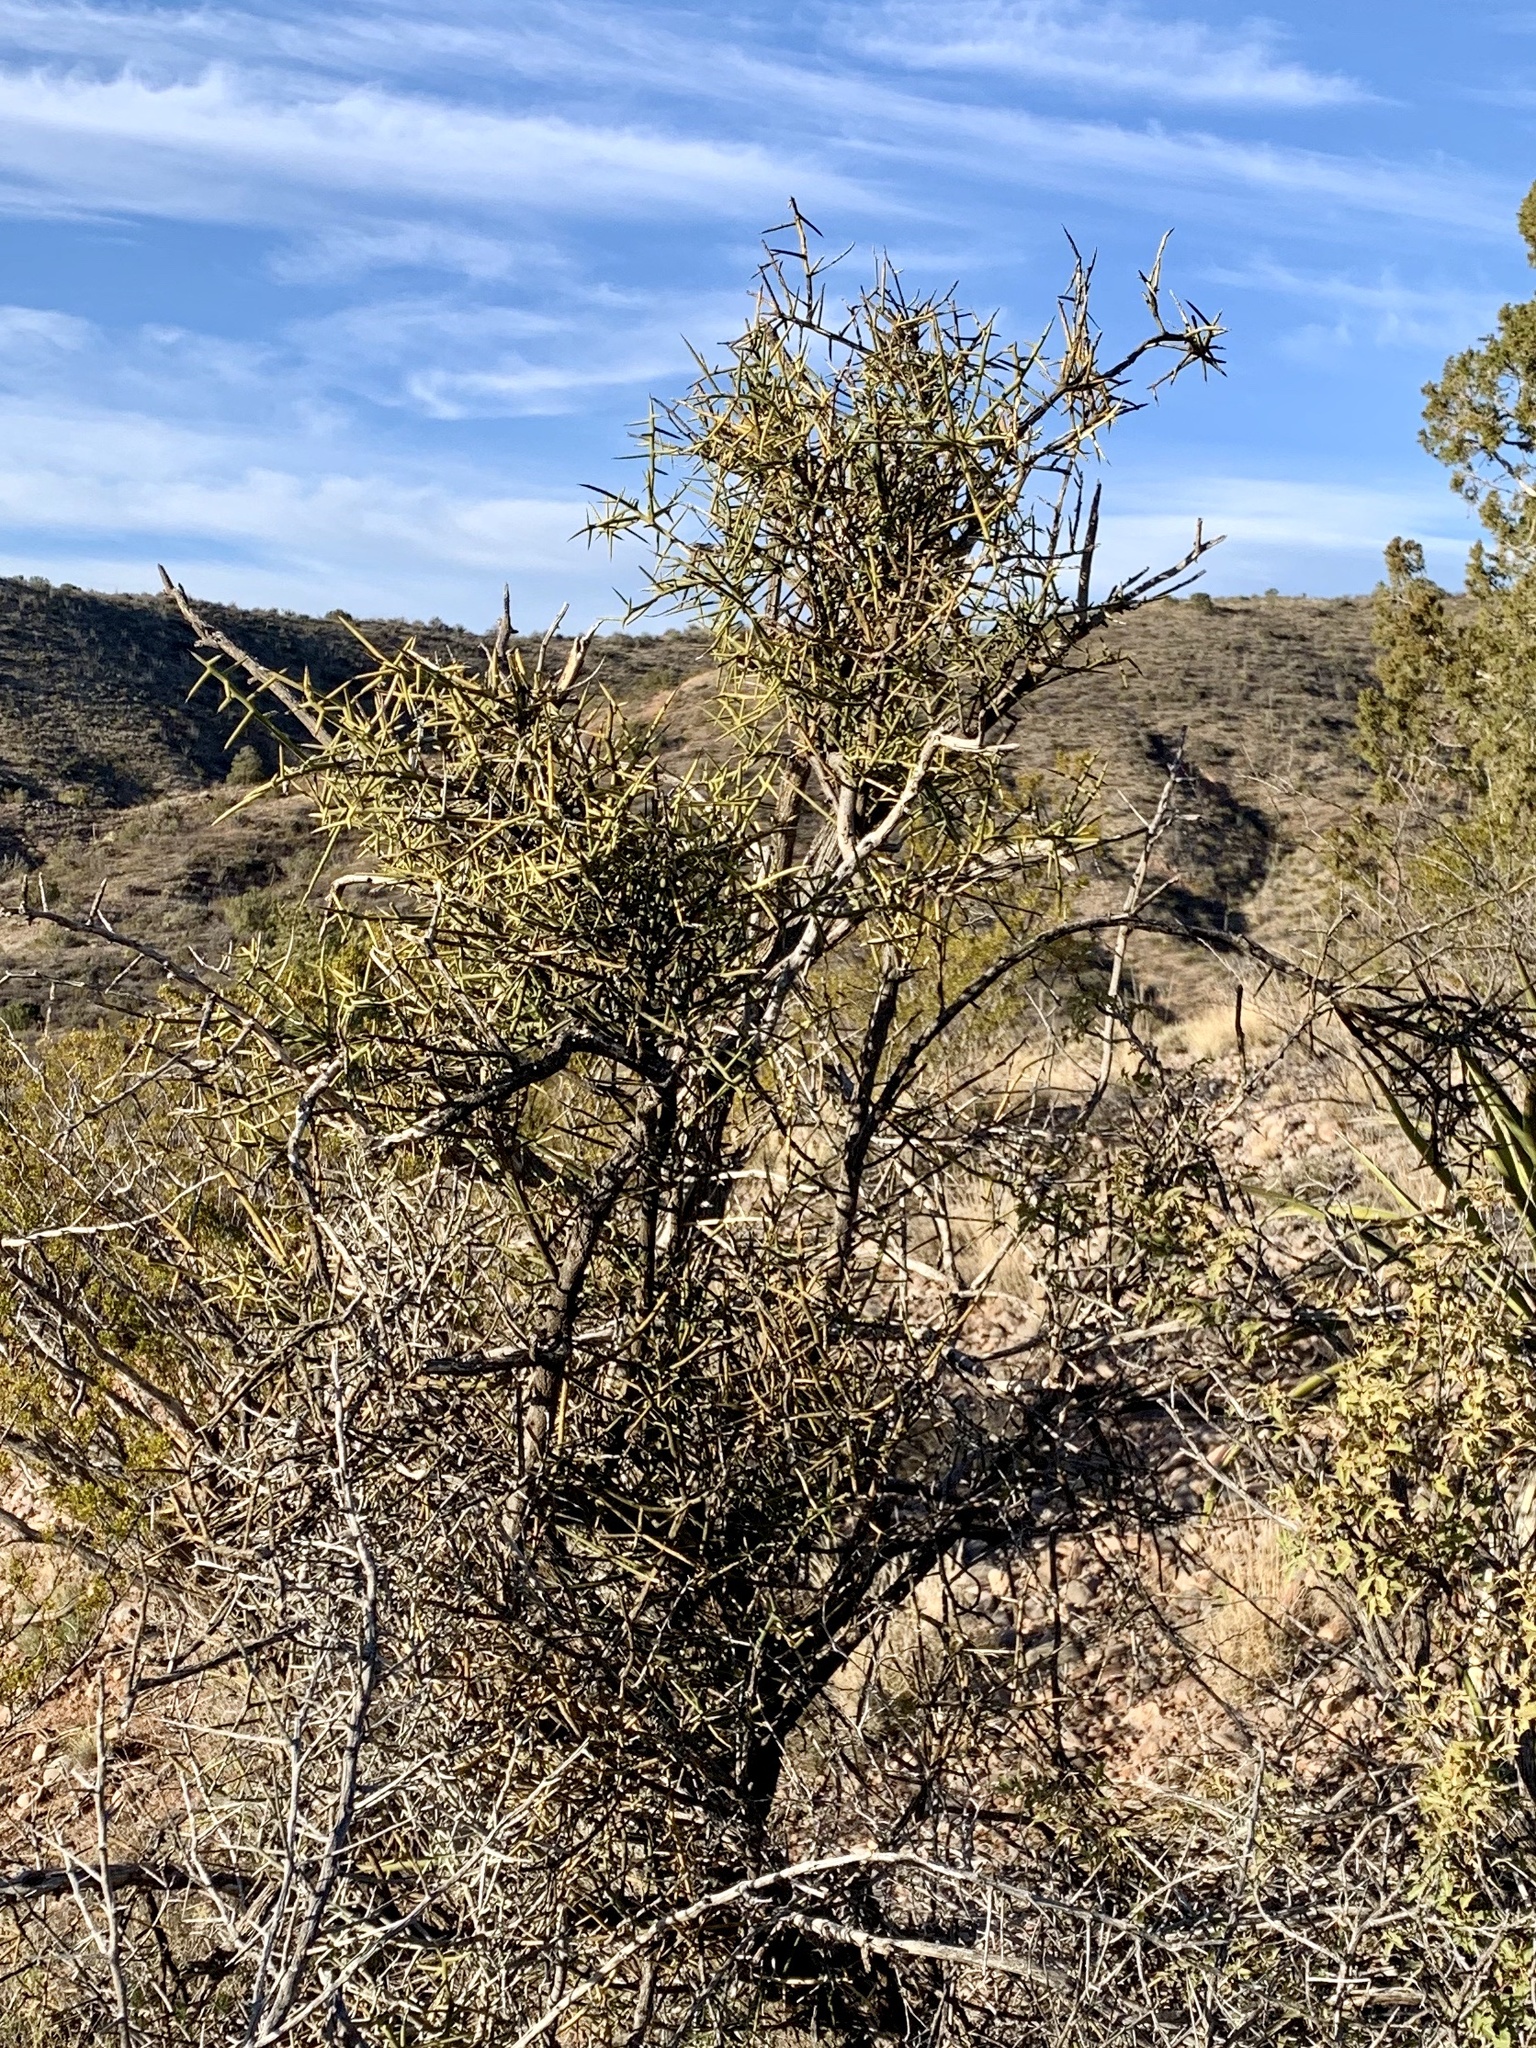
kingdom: Plantae
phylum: Tracheophyta
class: Magnoliopsida
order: Brassicales
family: Koeberliniaceae
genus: Koeberlinia
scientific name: Koeberlinia spinosa
